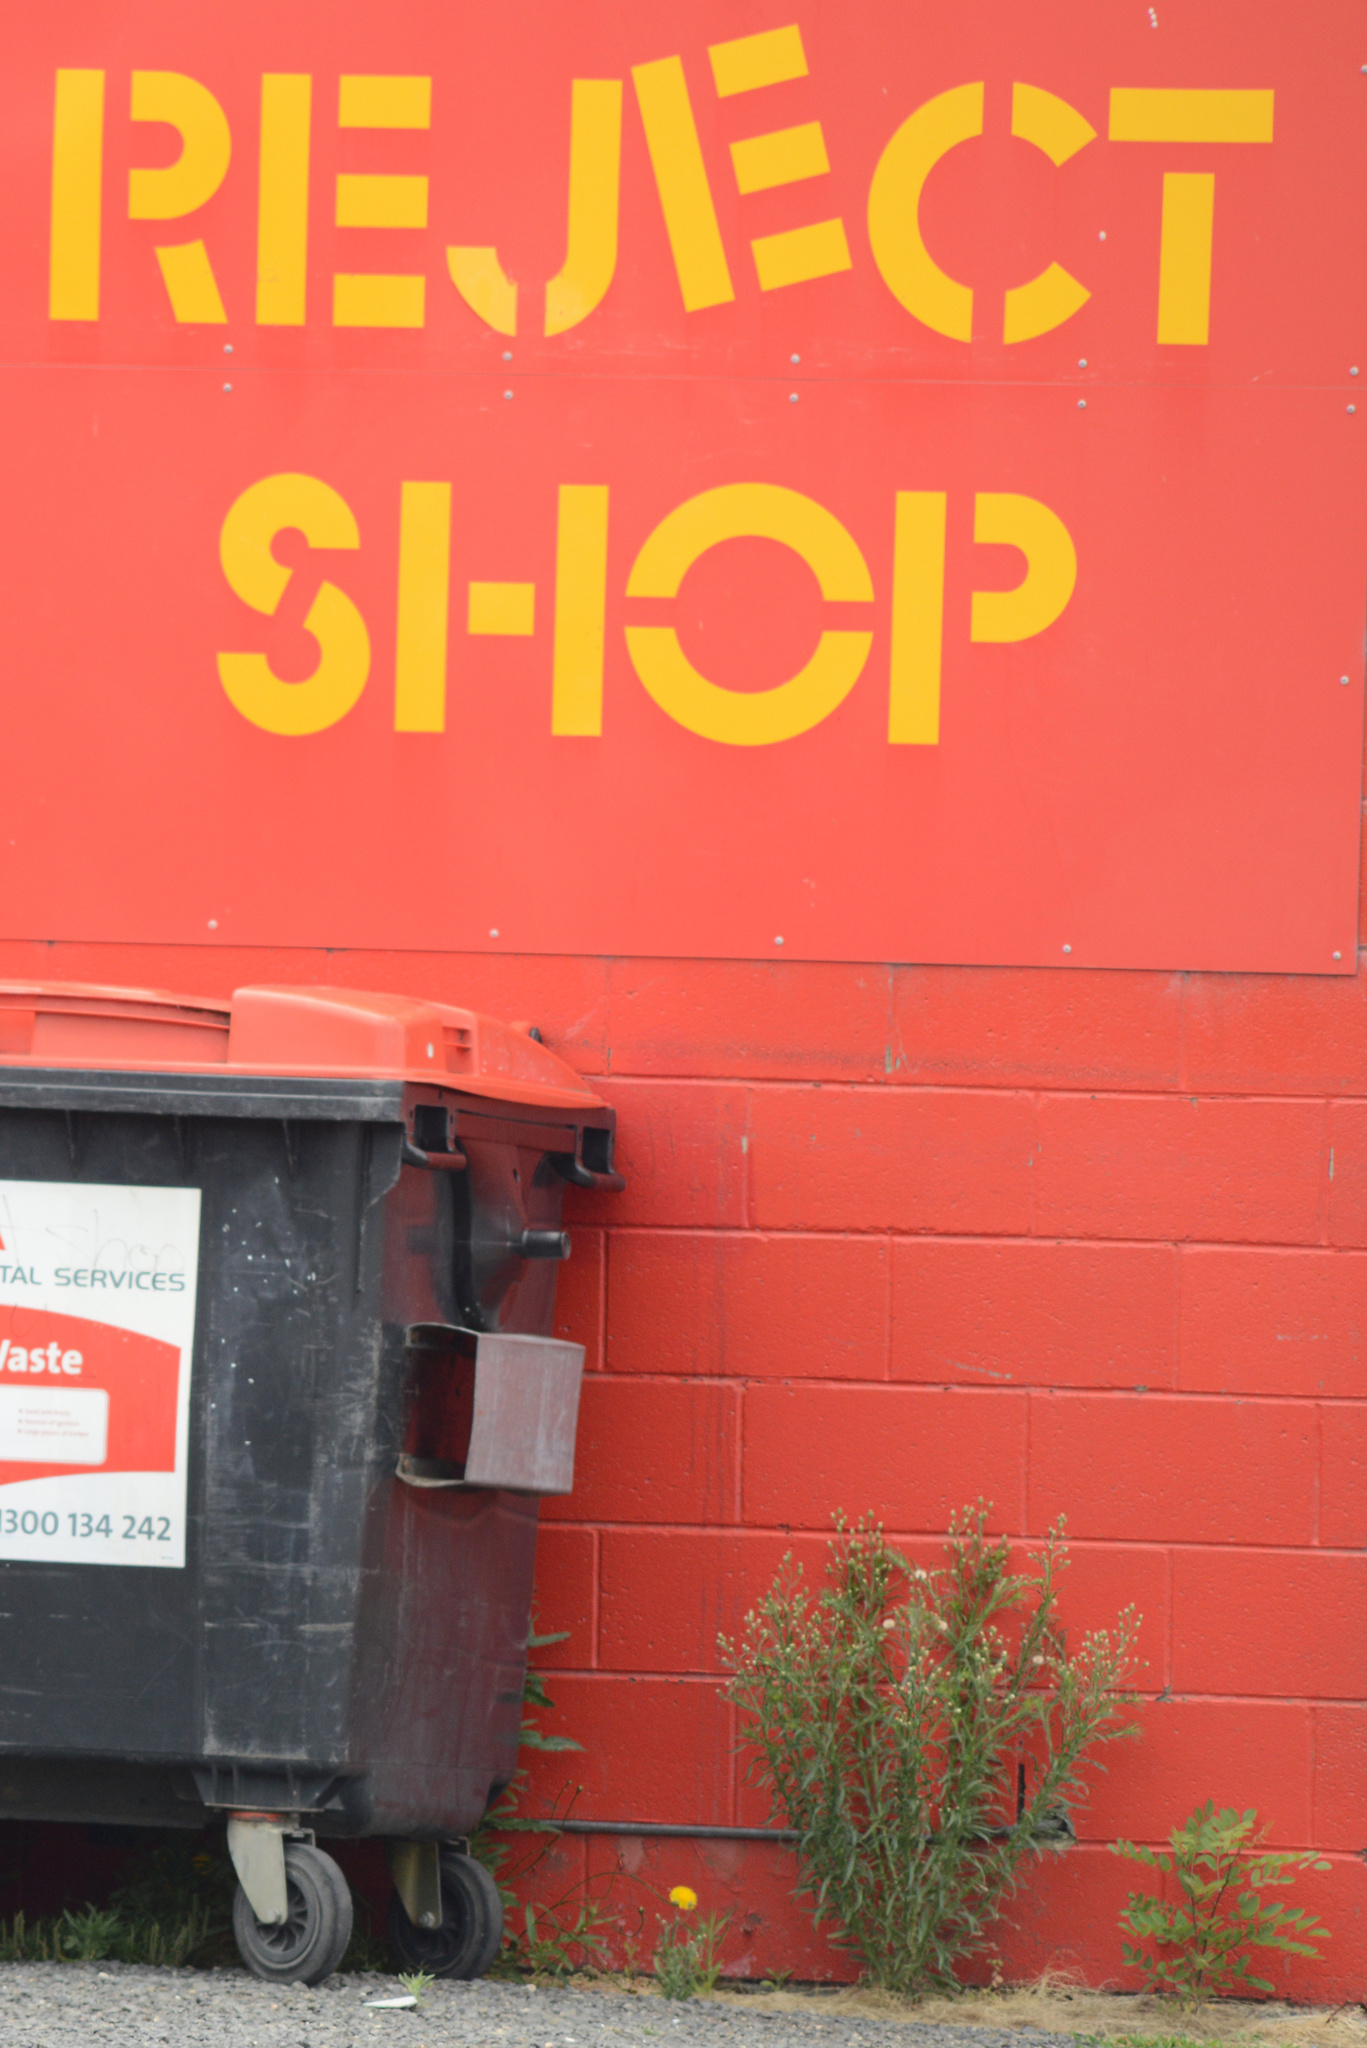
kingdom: Plantae
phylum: Tracheophyta
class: Magnoliopsida
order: Asterales
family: Asteraceae
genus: Erigeron
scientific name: Erigeron bonariensis
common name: Argentine fleabane
